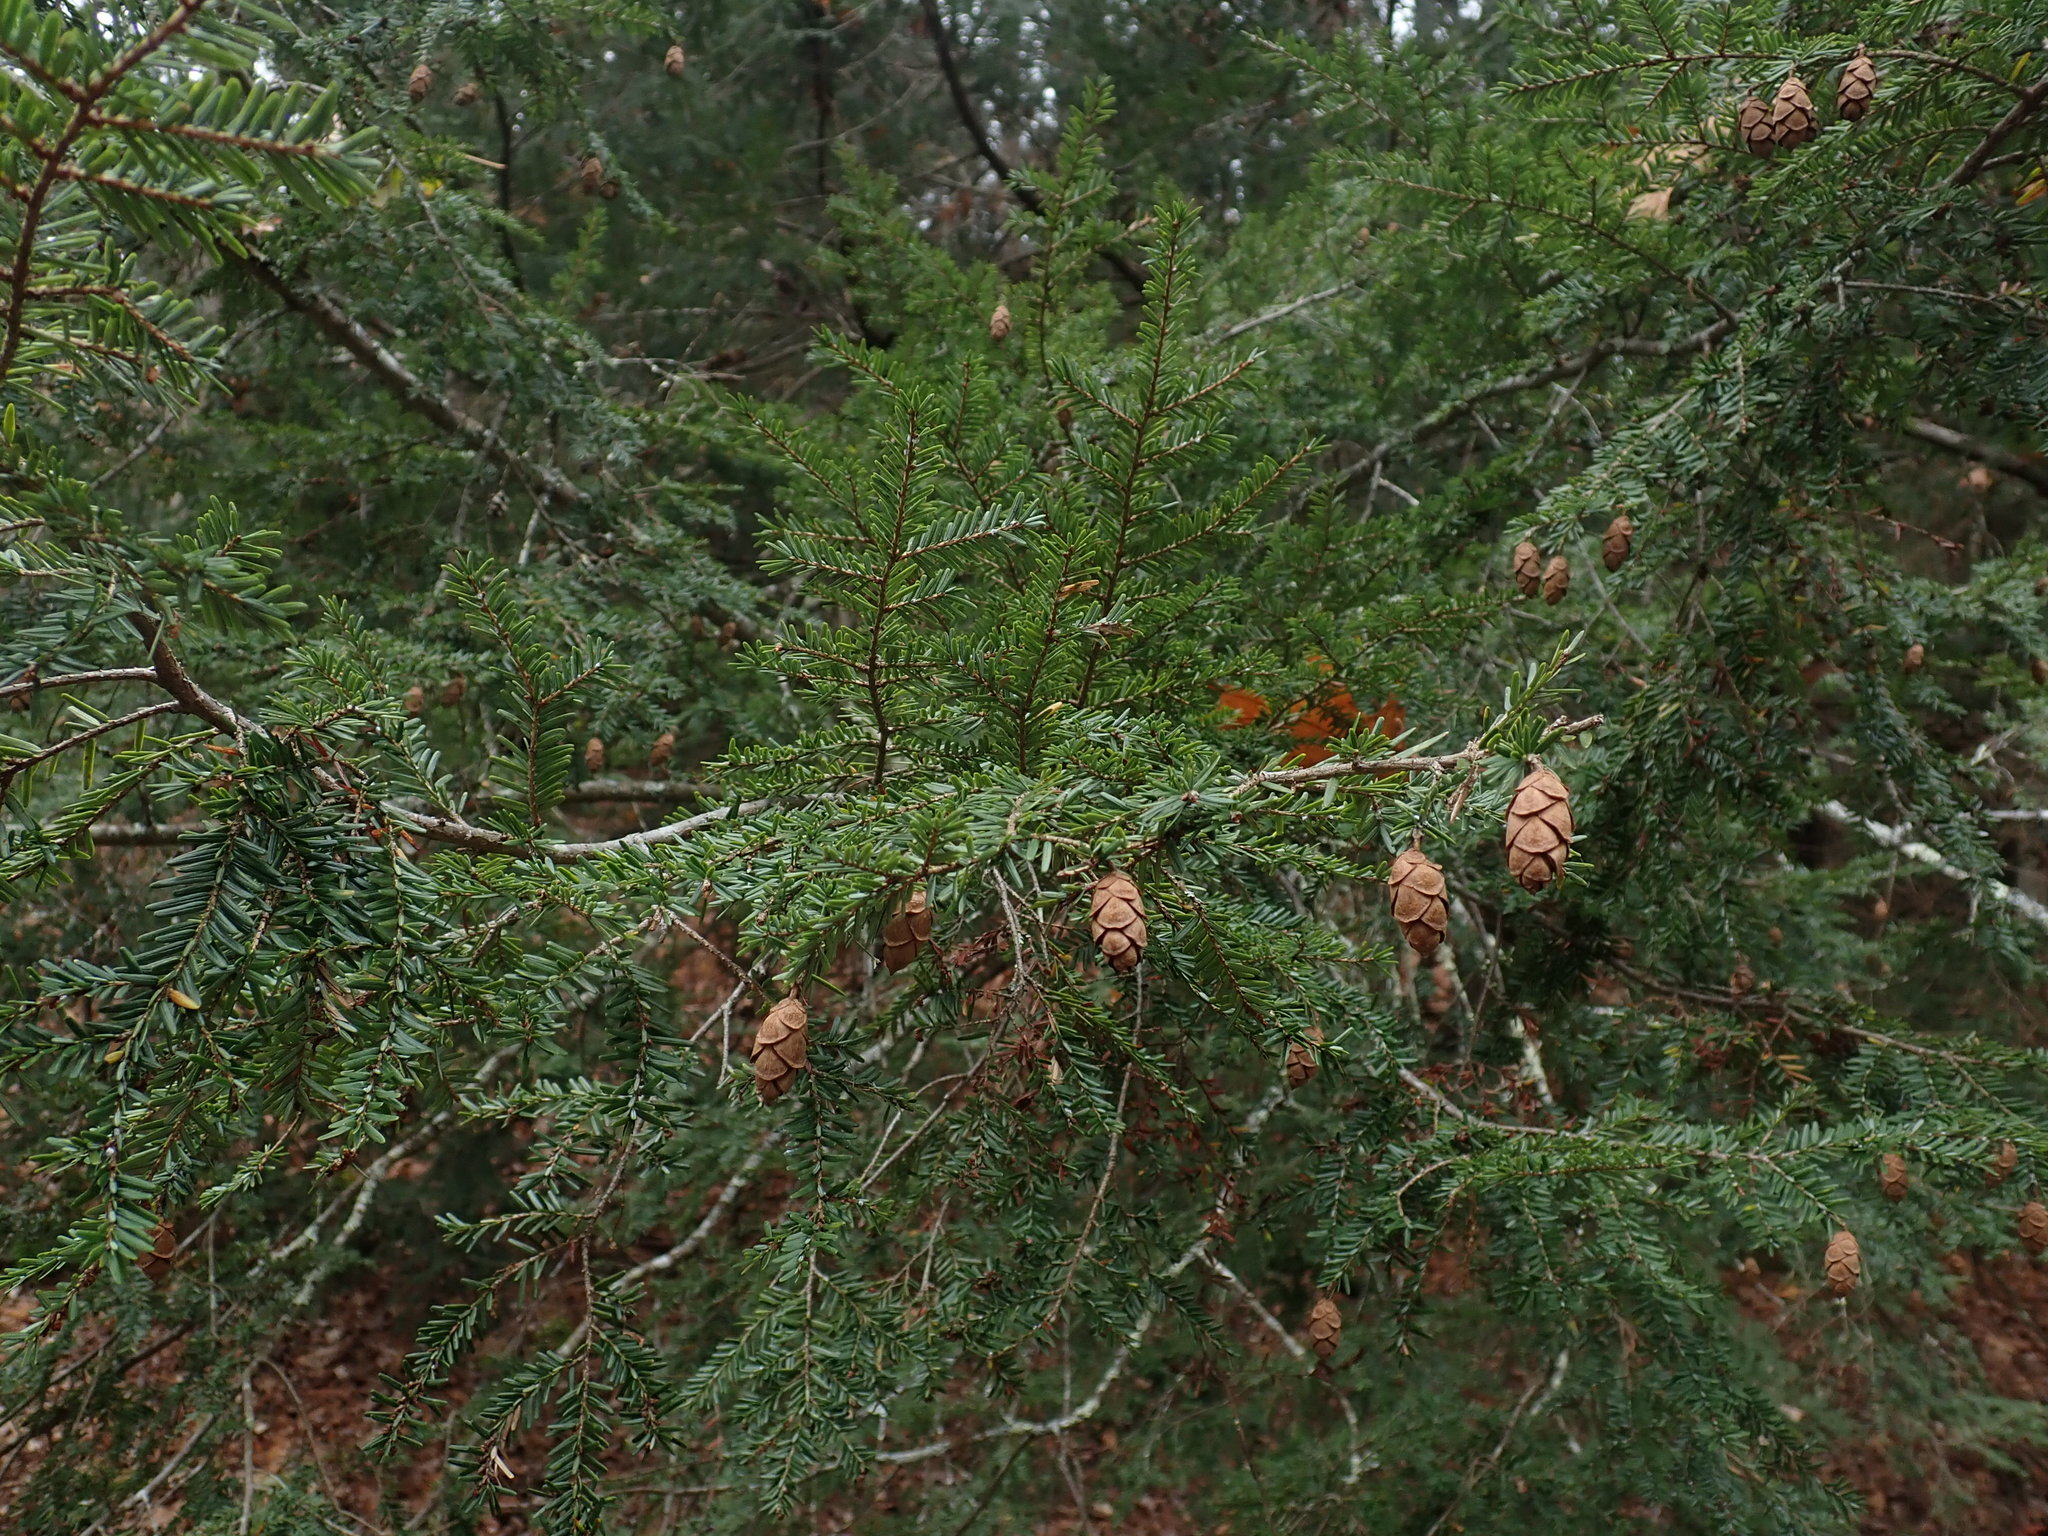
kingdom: Plantae
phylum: Tracheophyta
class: Pinopsida
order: Pinales
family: Pinaceae
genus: Tsuga
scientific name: Tsuga canadensis
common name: Eastern hemlock
